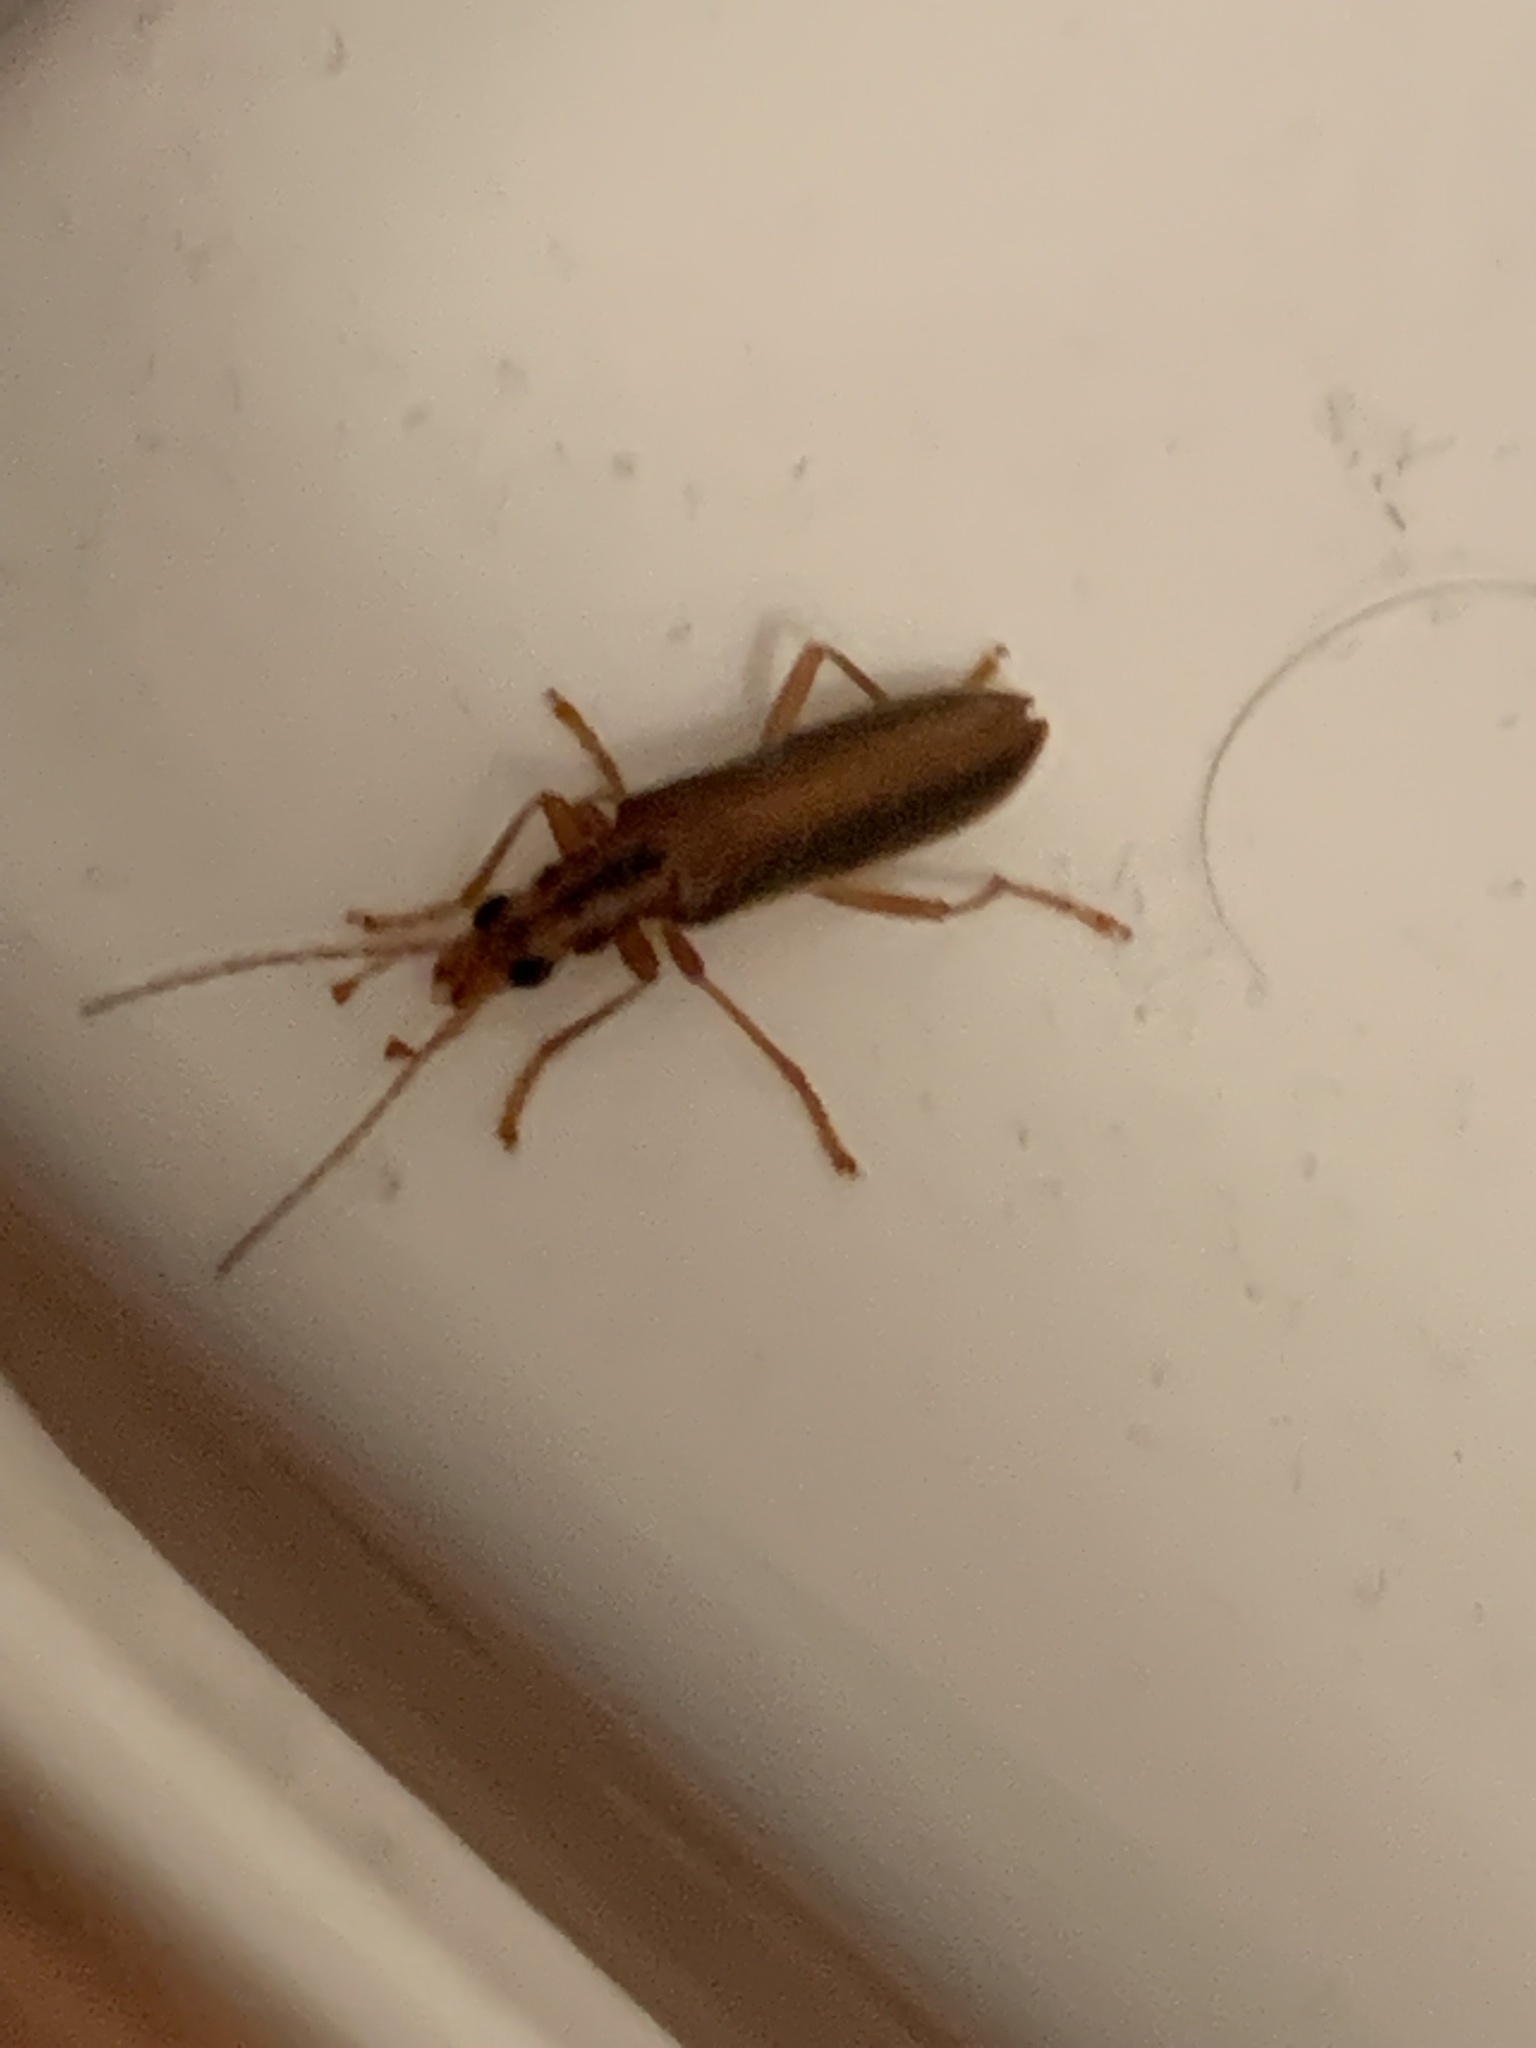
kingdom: Animalia
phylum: Arthropoda
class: Insecta
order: Coleoptera
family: Oedemeridae
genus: Thelyphassa
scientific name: Thelyphassa
